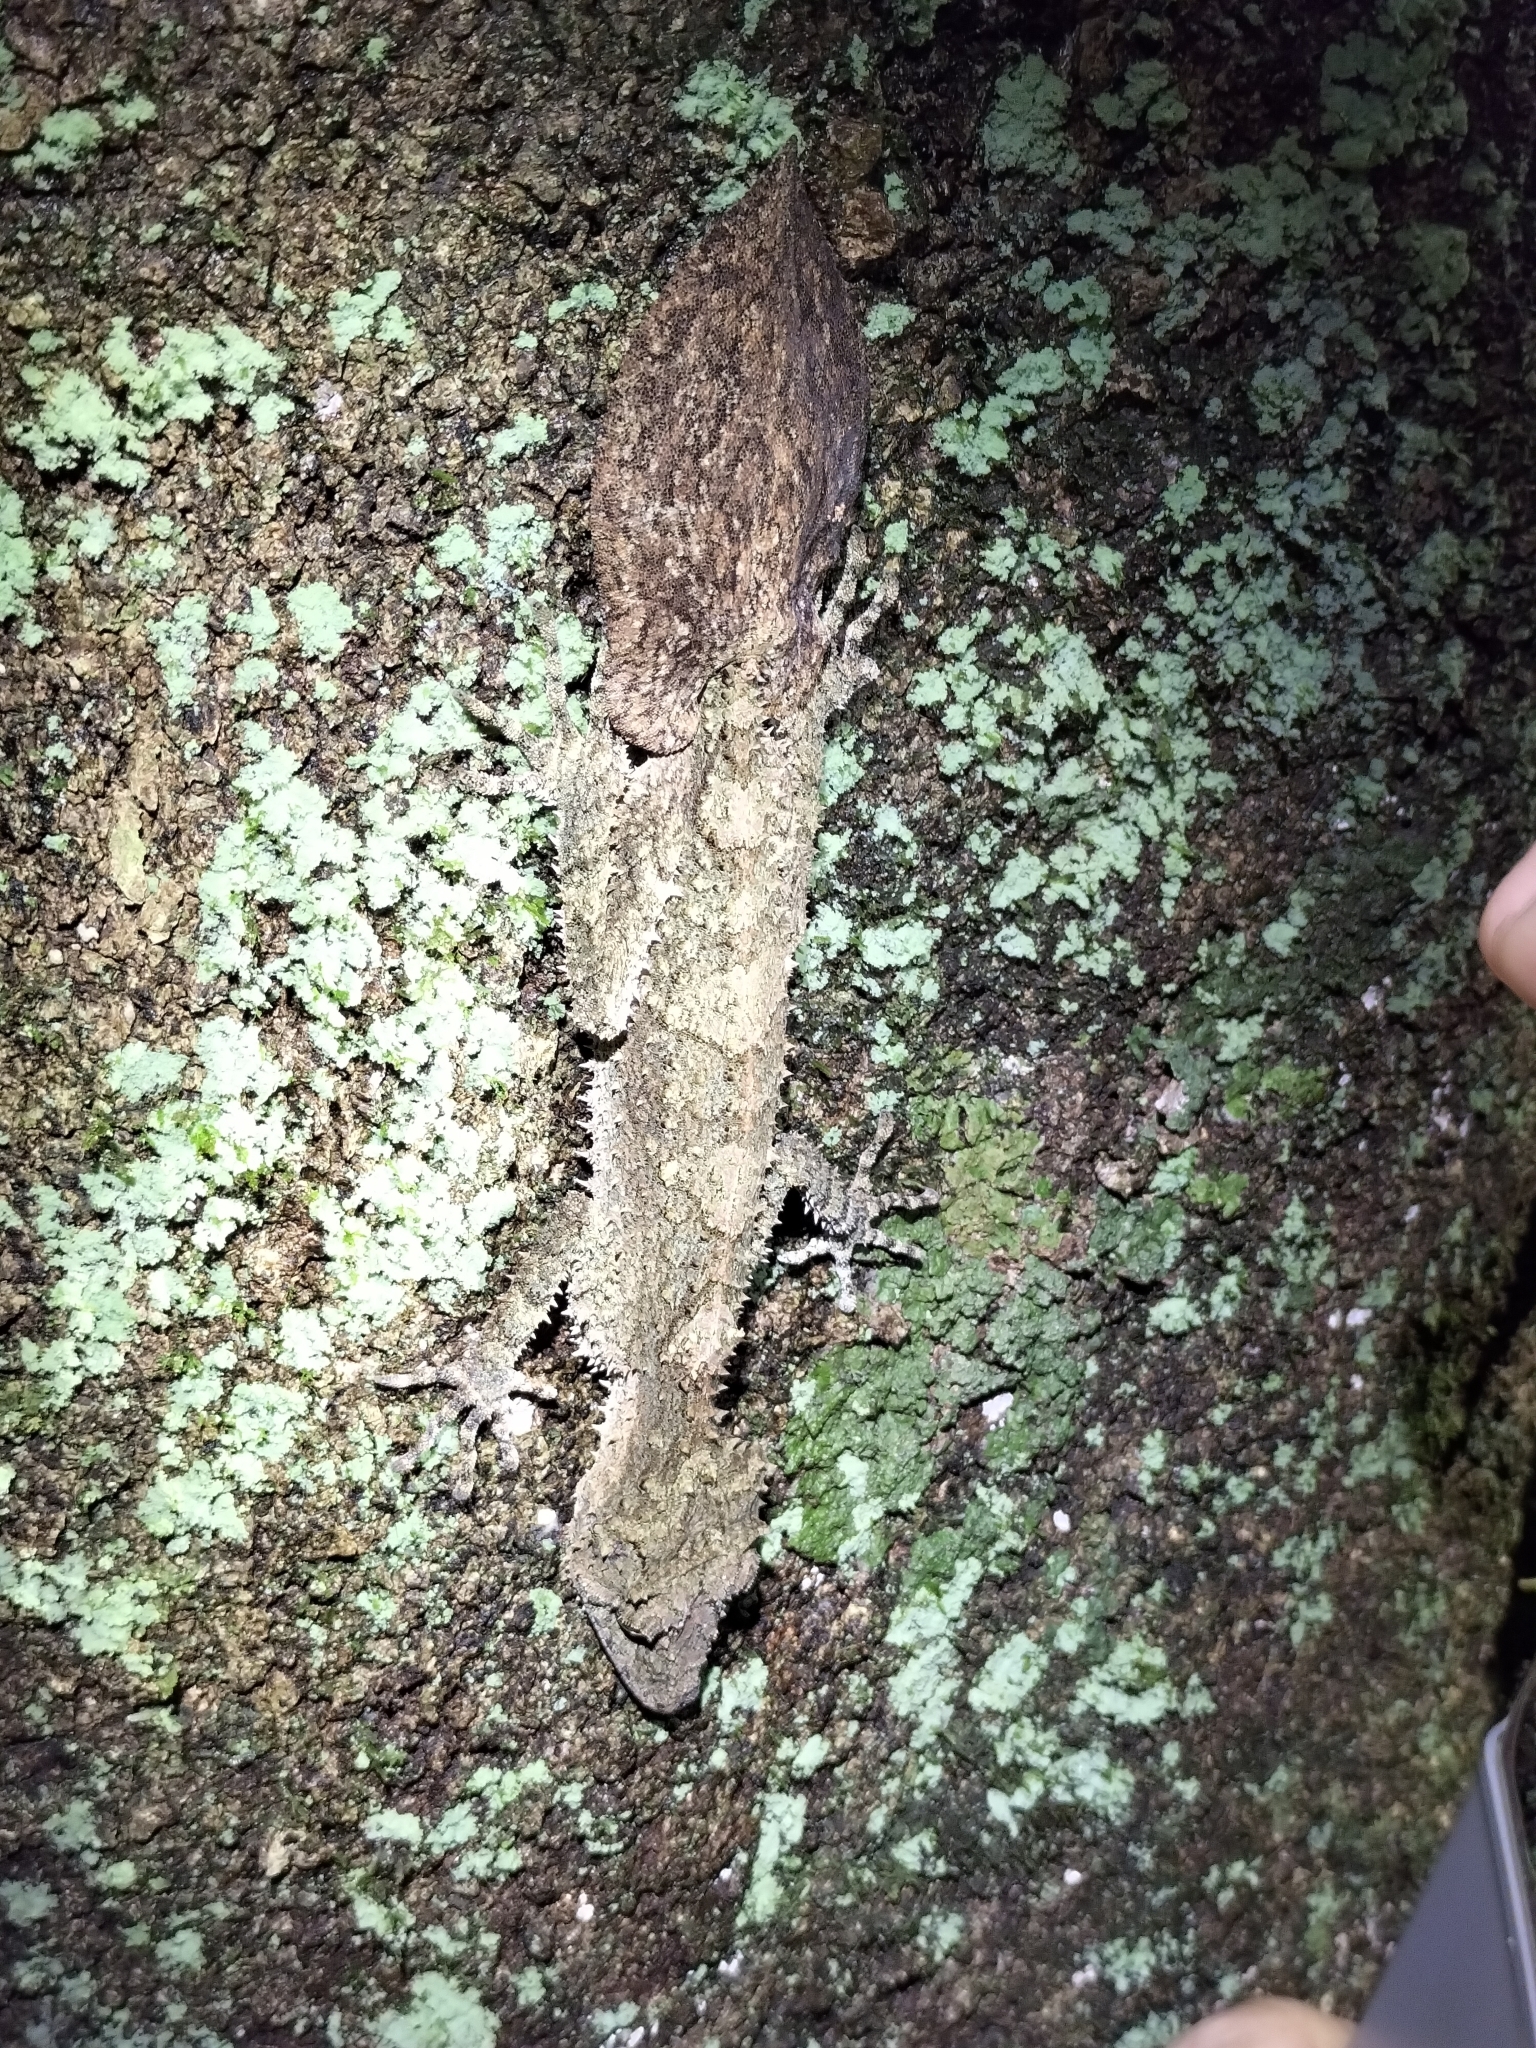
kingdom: Animalia
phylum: Chordata
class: Squamata
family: Carphodactylidae
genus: Saltuarius
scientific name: Saltuarius cornutus
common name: Leaf-tailed gecko
